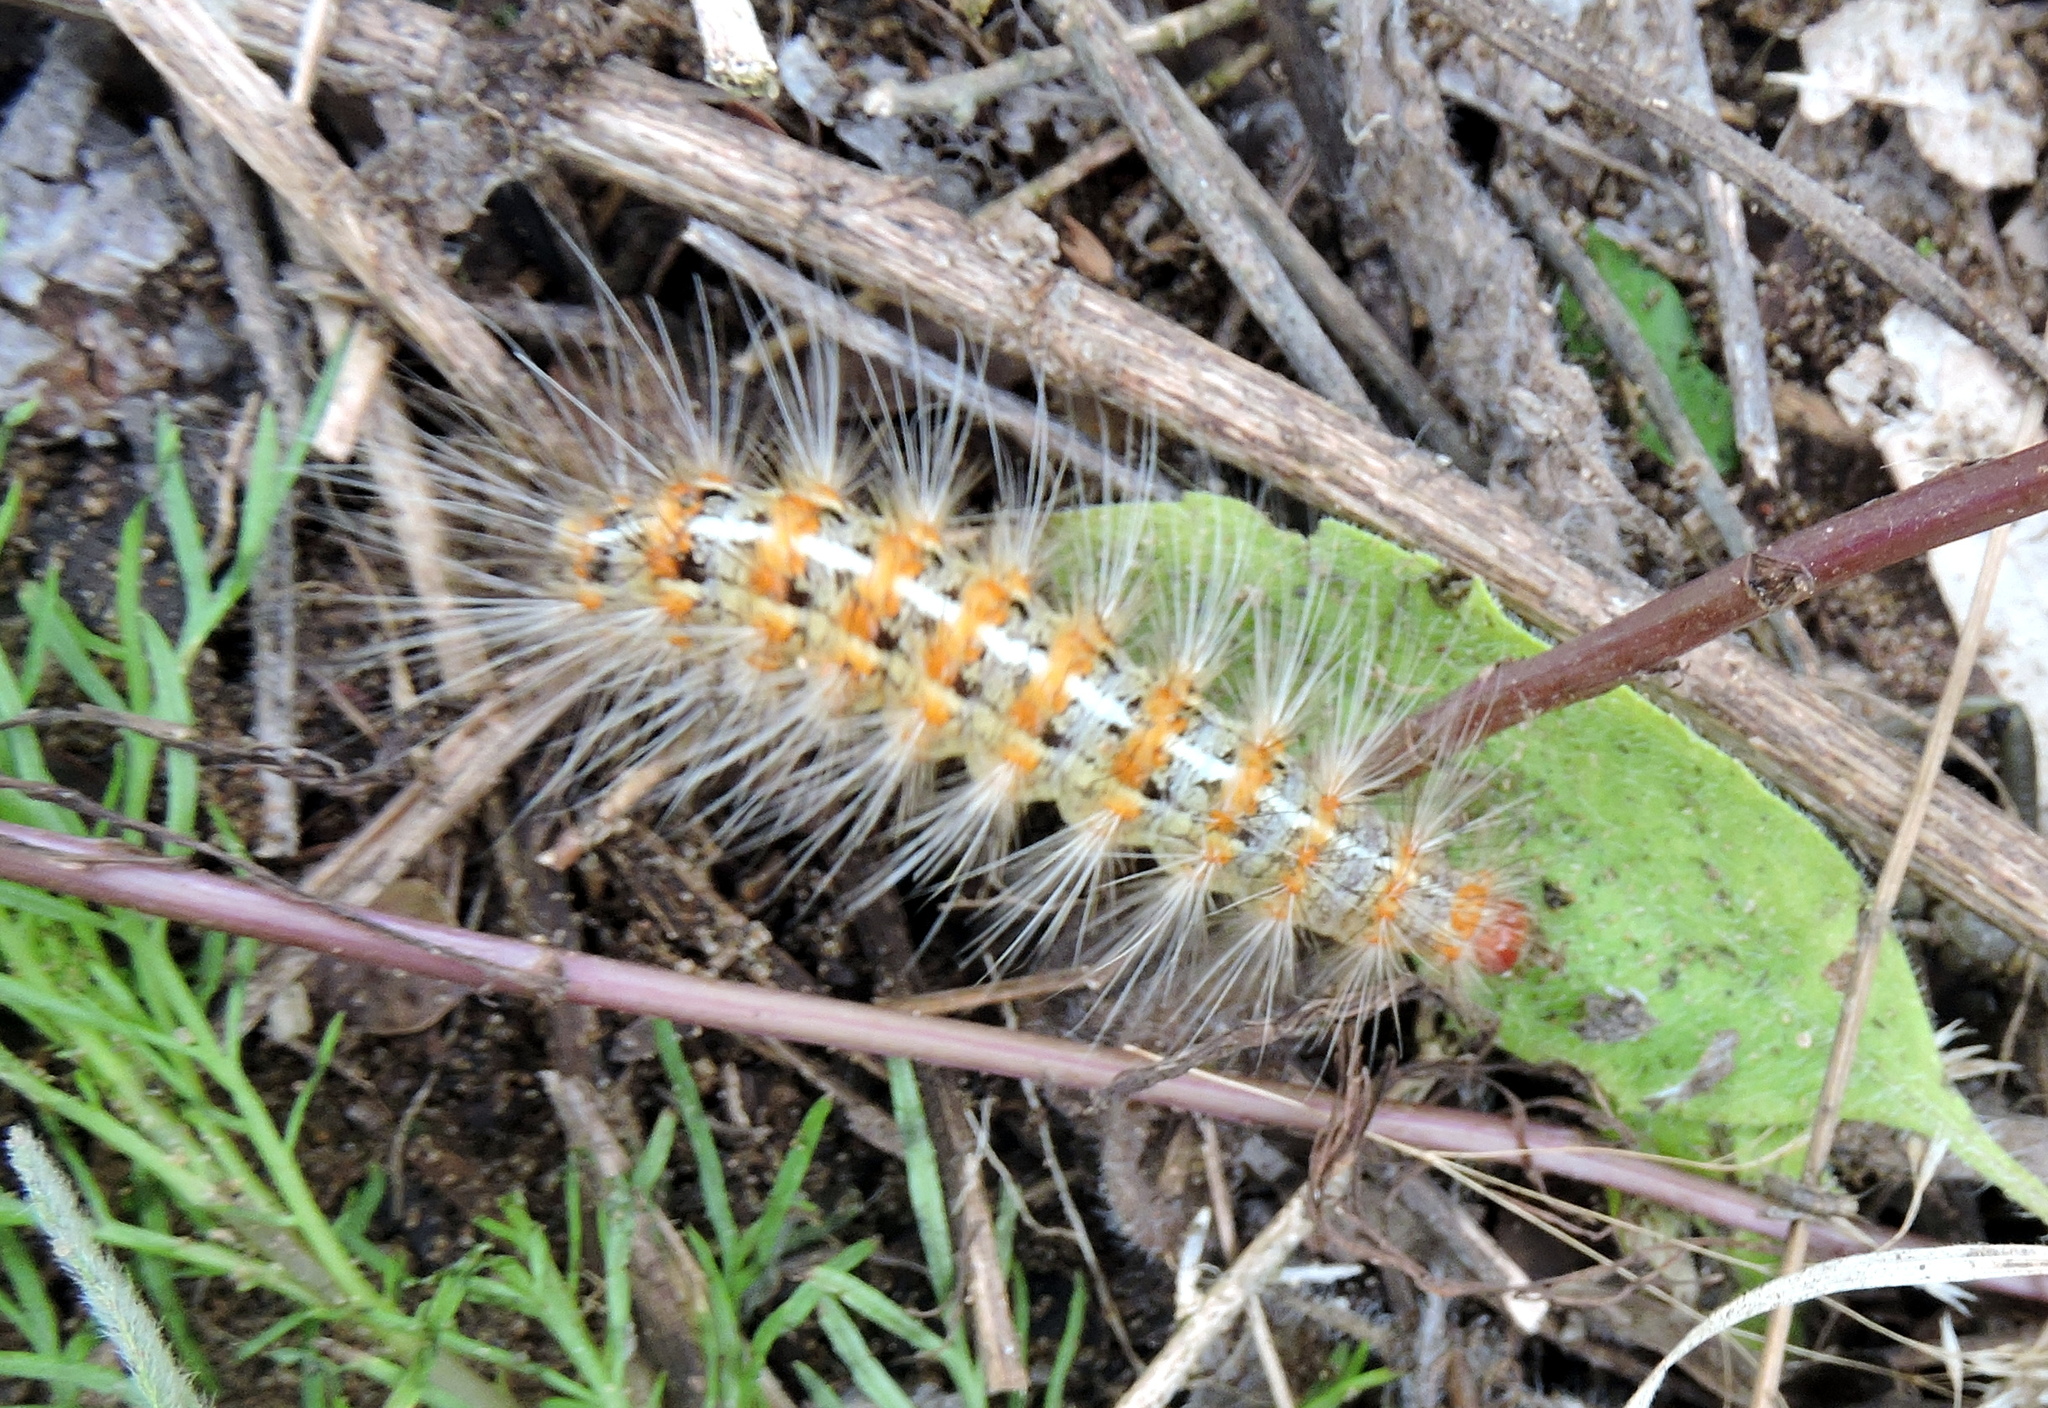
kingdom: Animalia
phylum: Arthropoda
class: Insecta
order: Lepidoptera
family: Erebidae
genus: Paracles
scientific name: Paracles deserticola
